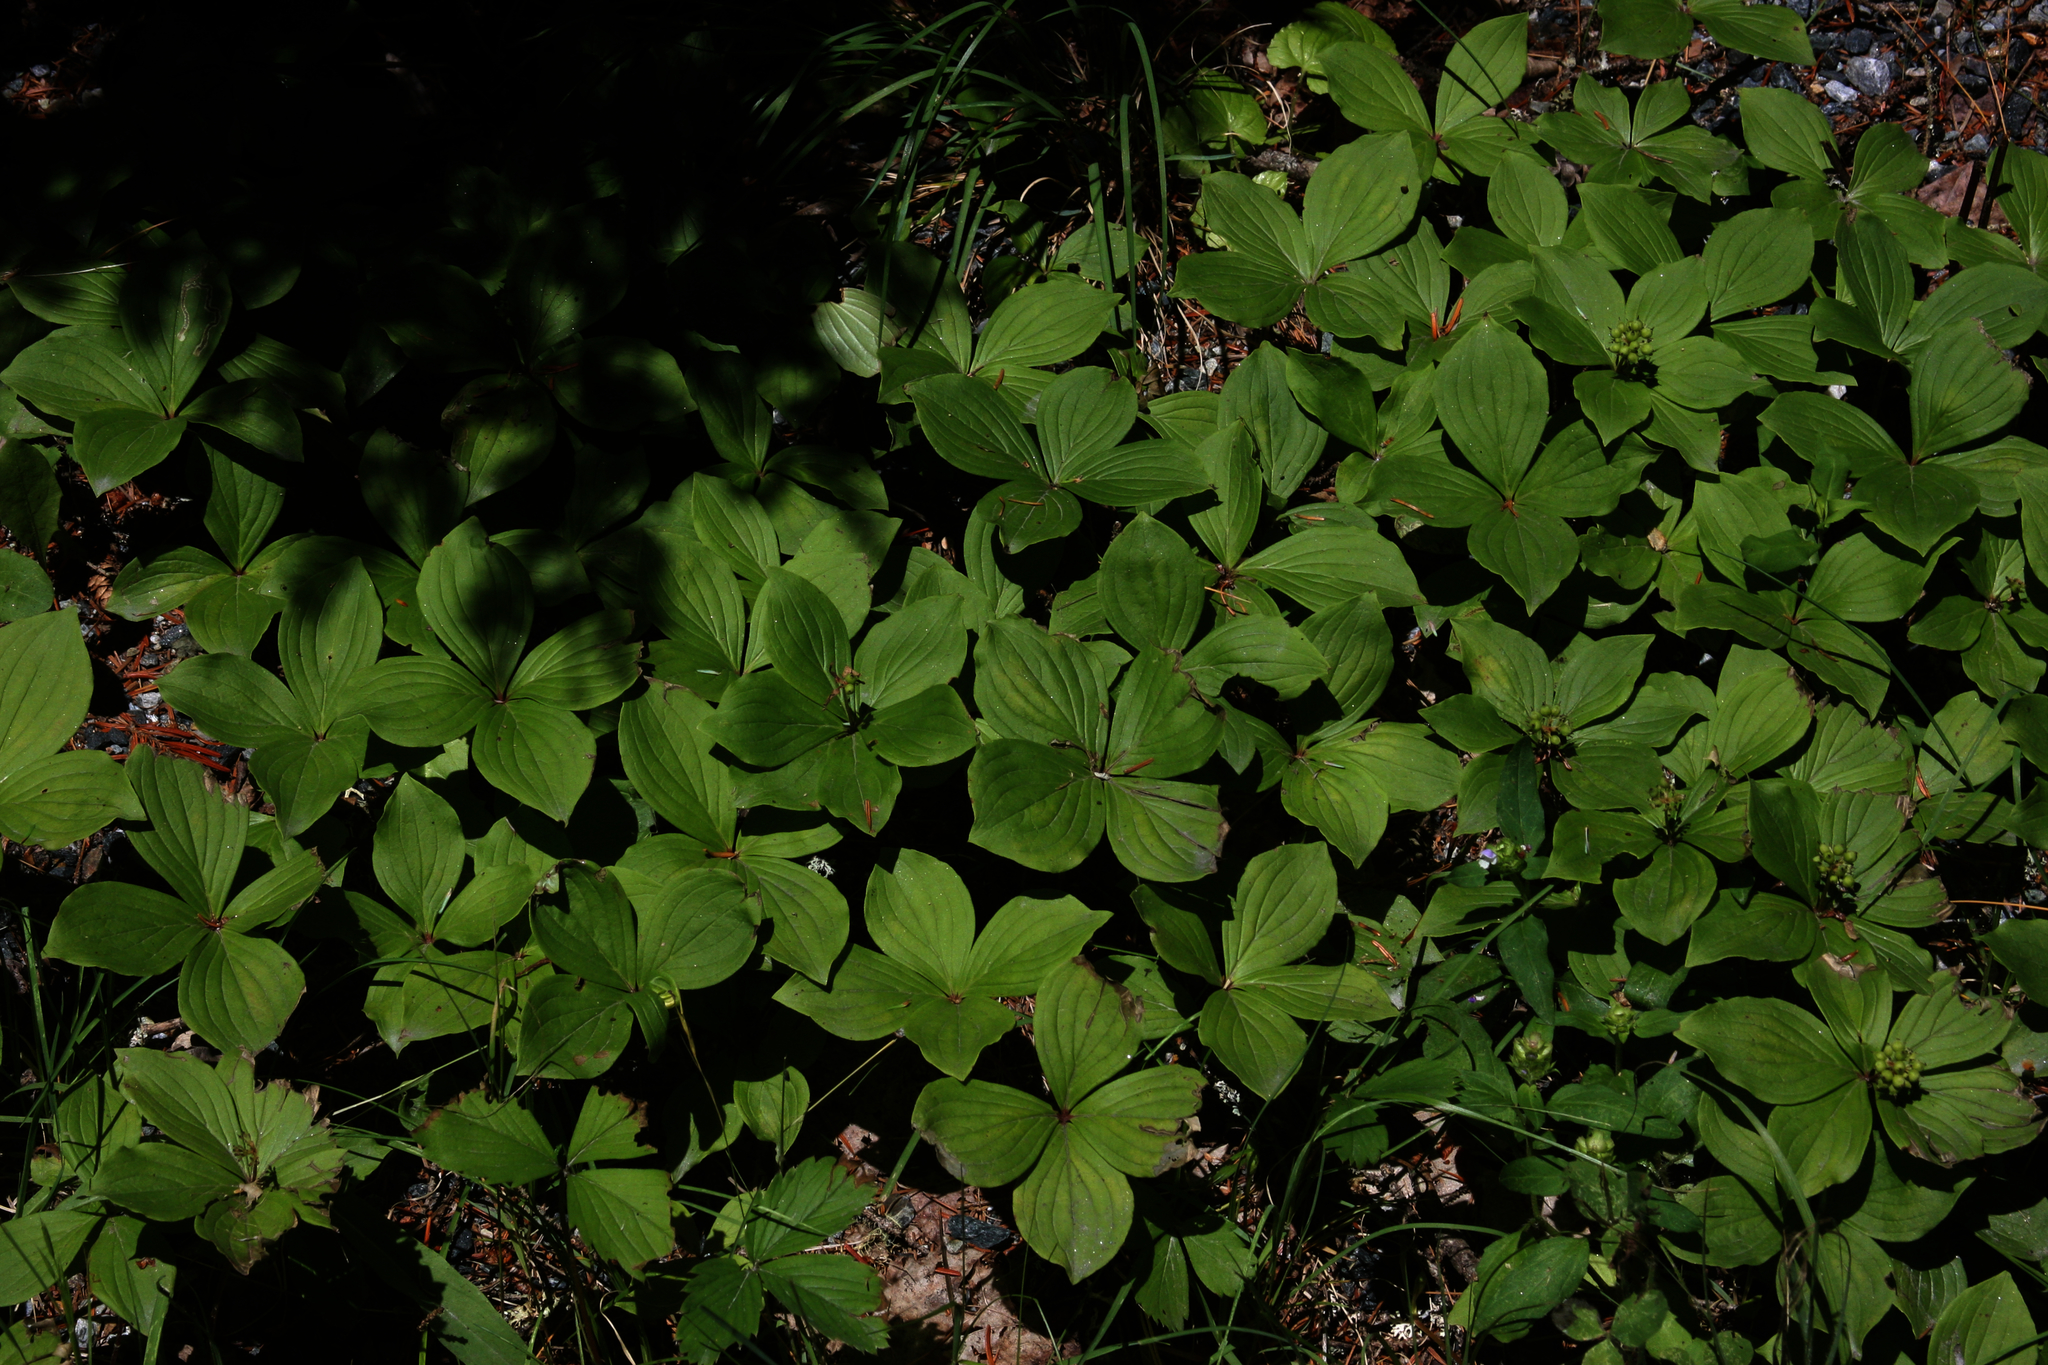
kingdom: Plantae
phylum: Tracheophyta
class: Magnoliopsida
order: Cornales
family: Cornaceae
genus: Cornus
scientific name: Cornus canadensis
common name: Creeping dogwood
